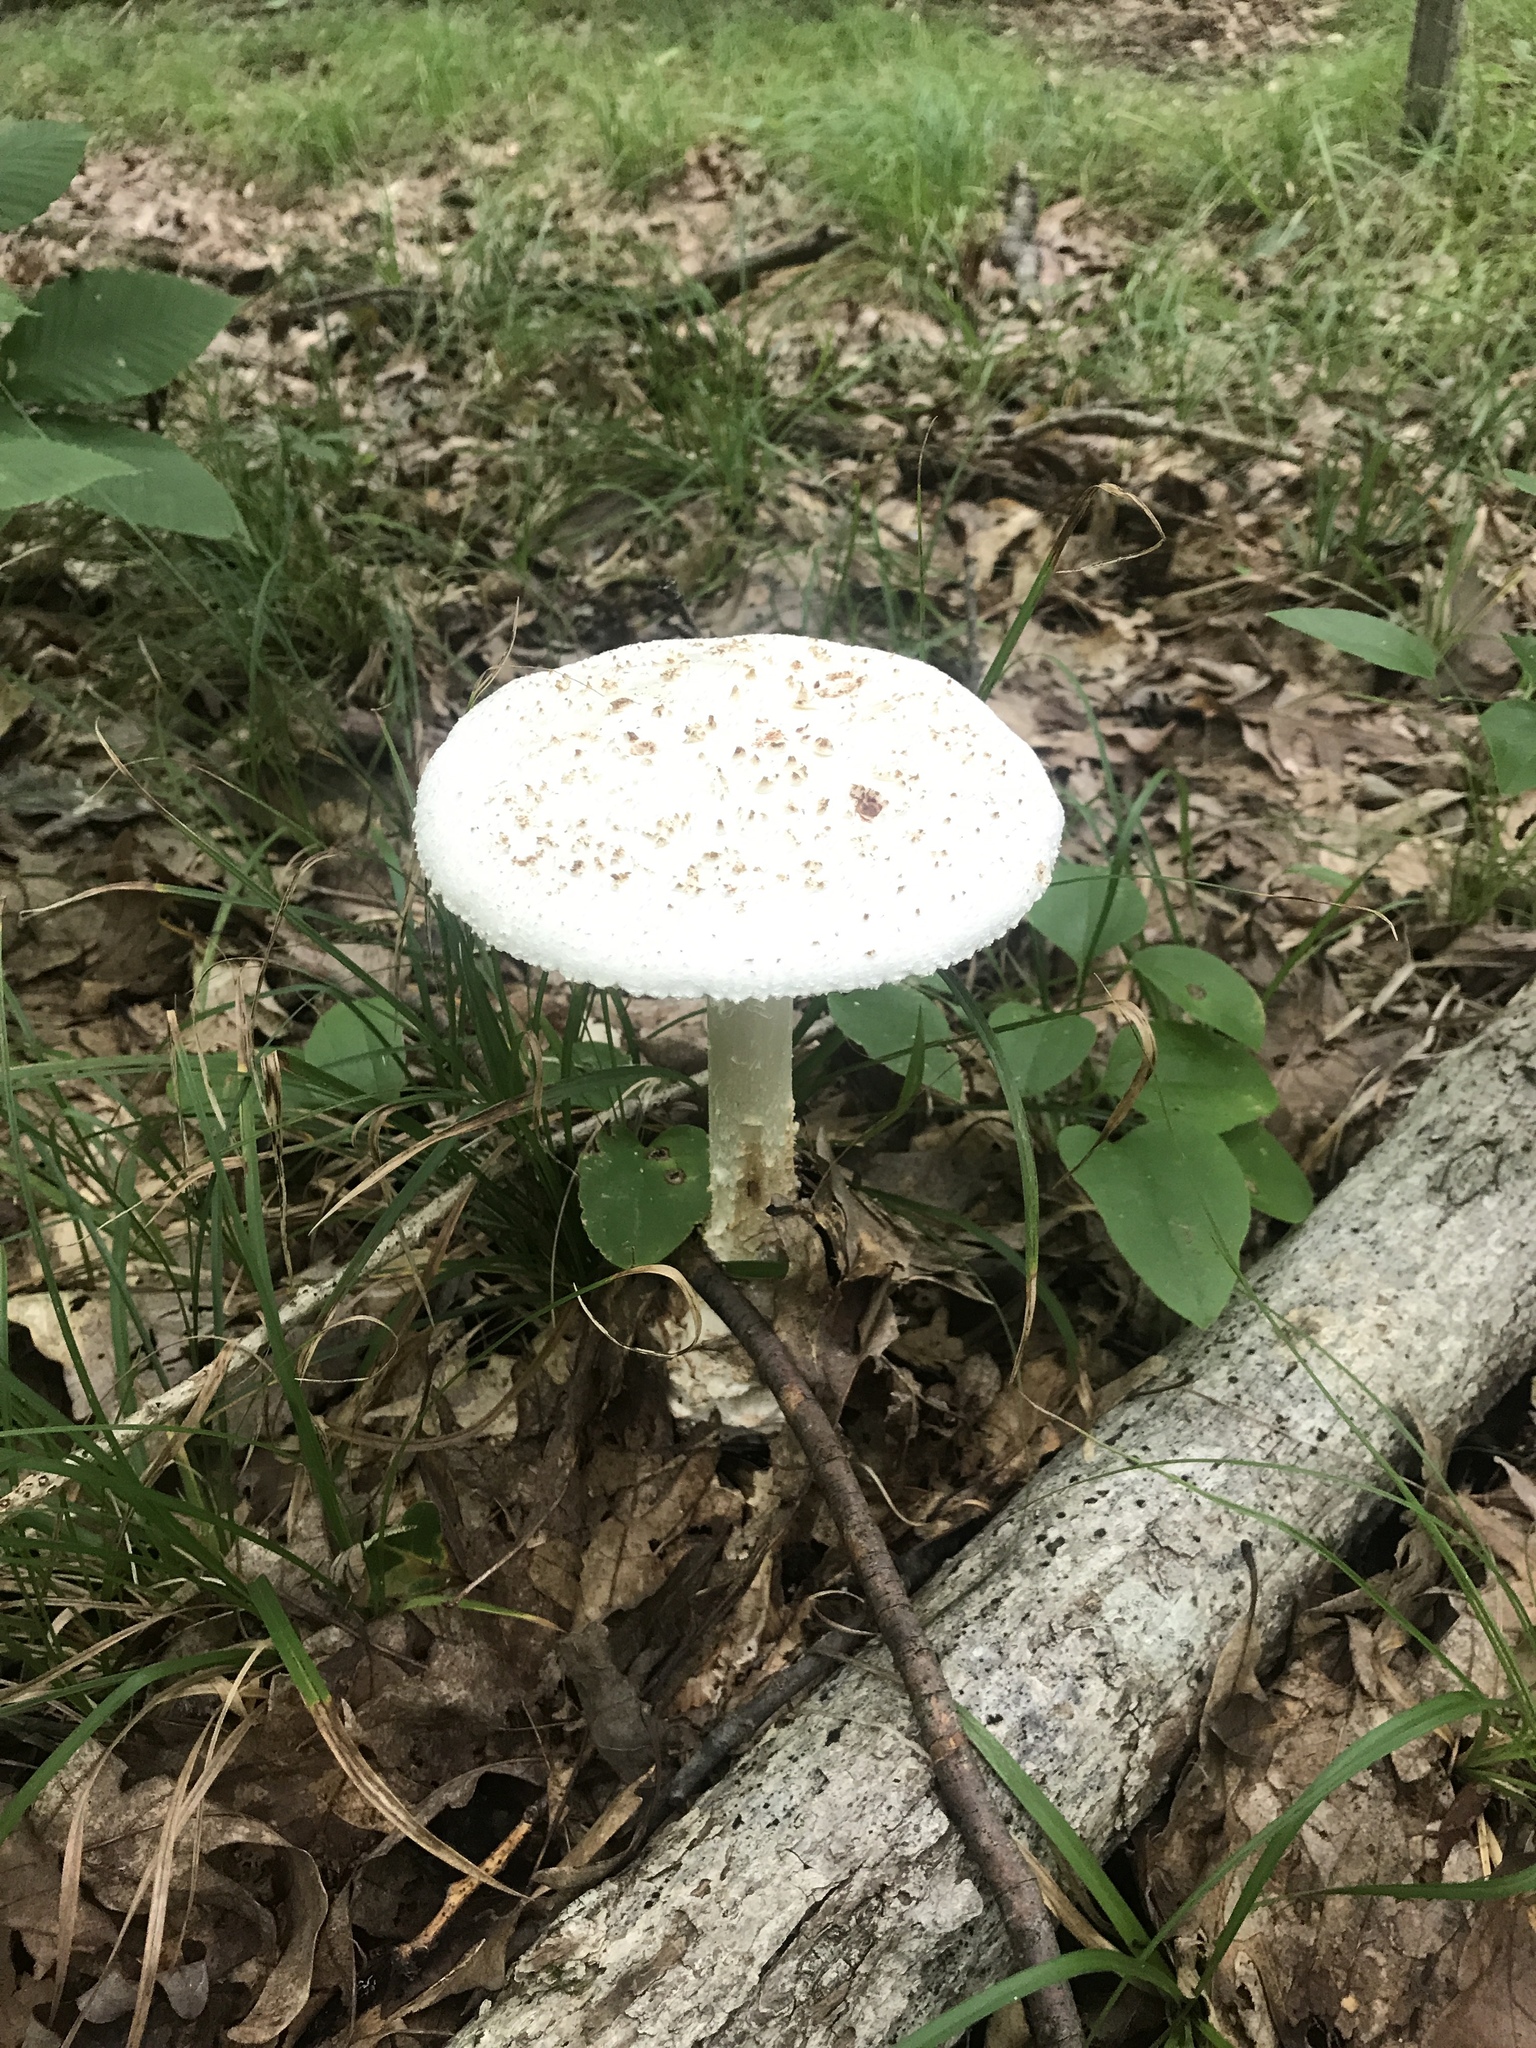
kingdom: Fungi
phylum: Basidiomycota
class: Agaricomycetes
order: Agaricales
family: Amanitaceae
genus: Amanita
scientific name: Amanita
